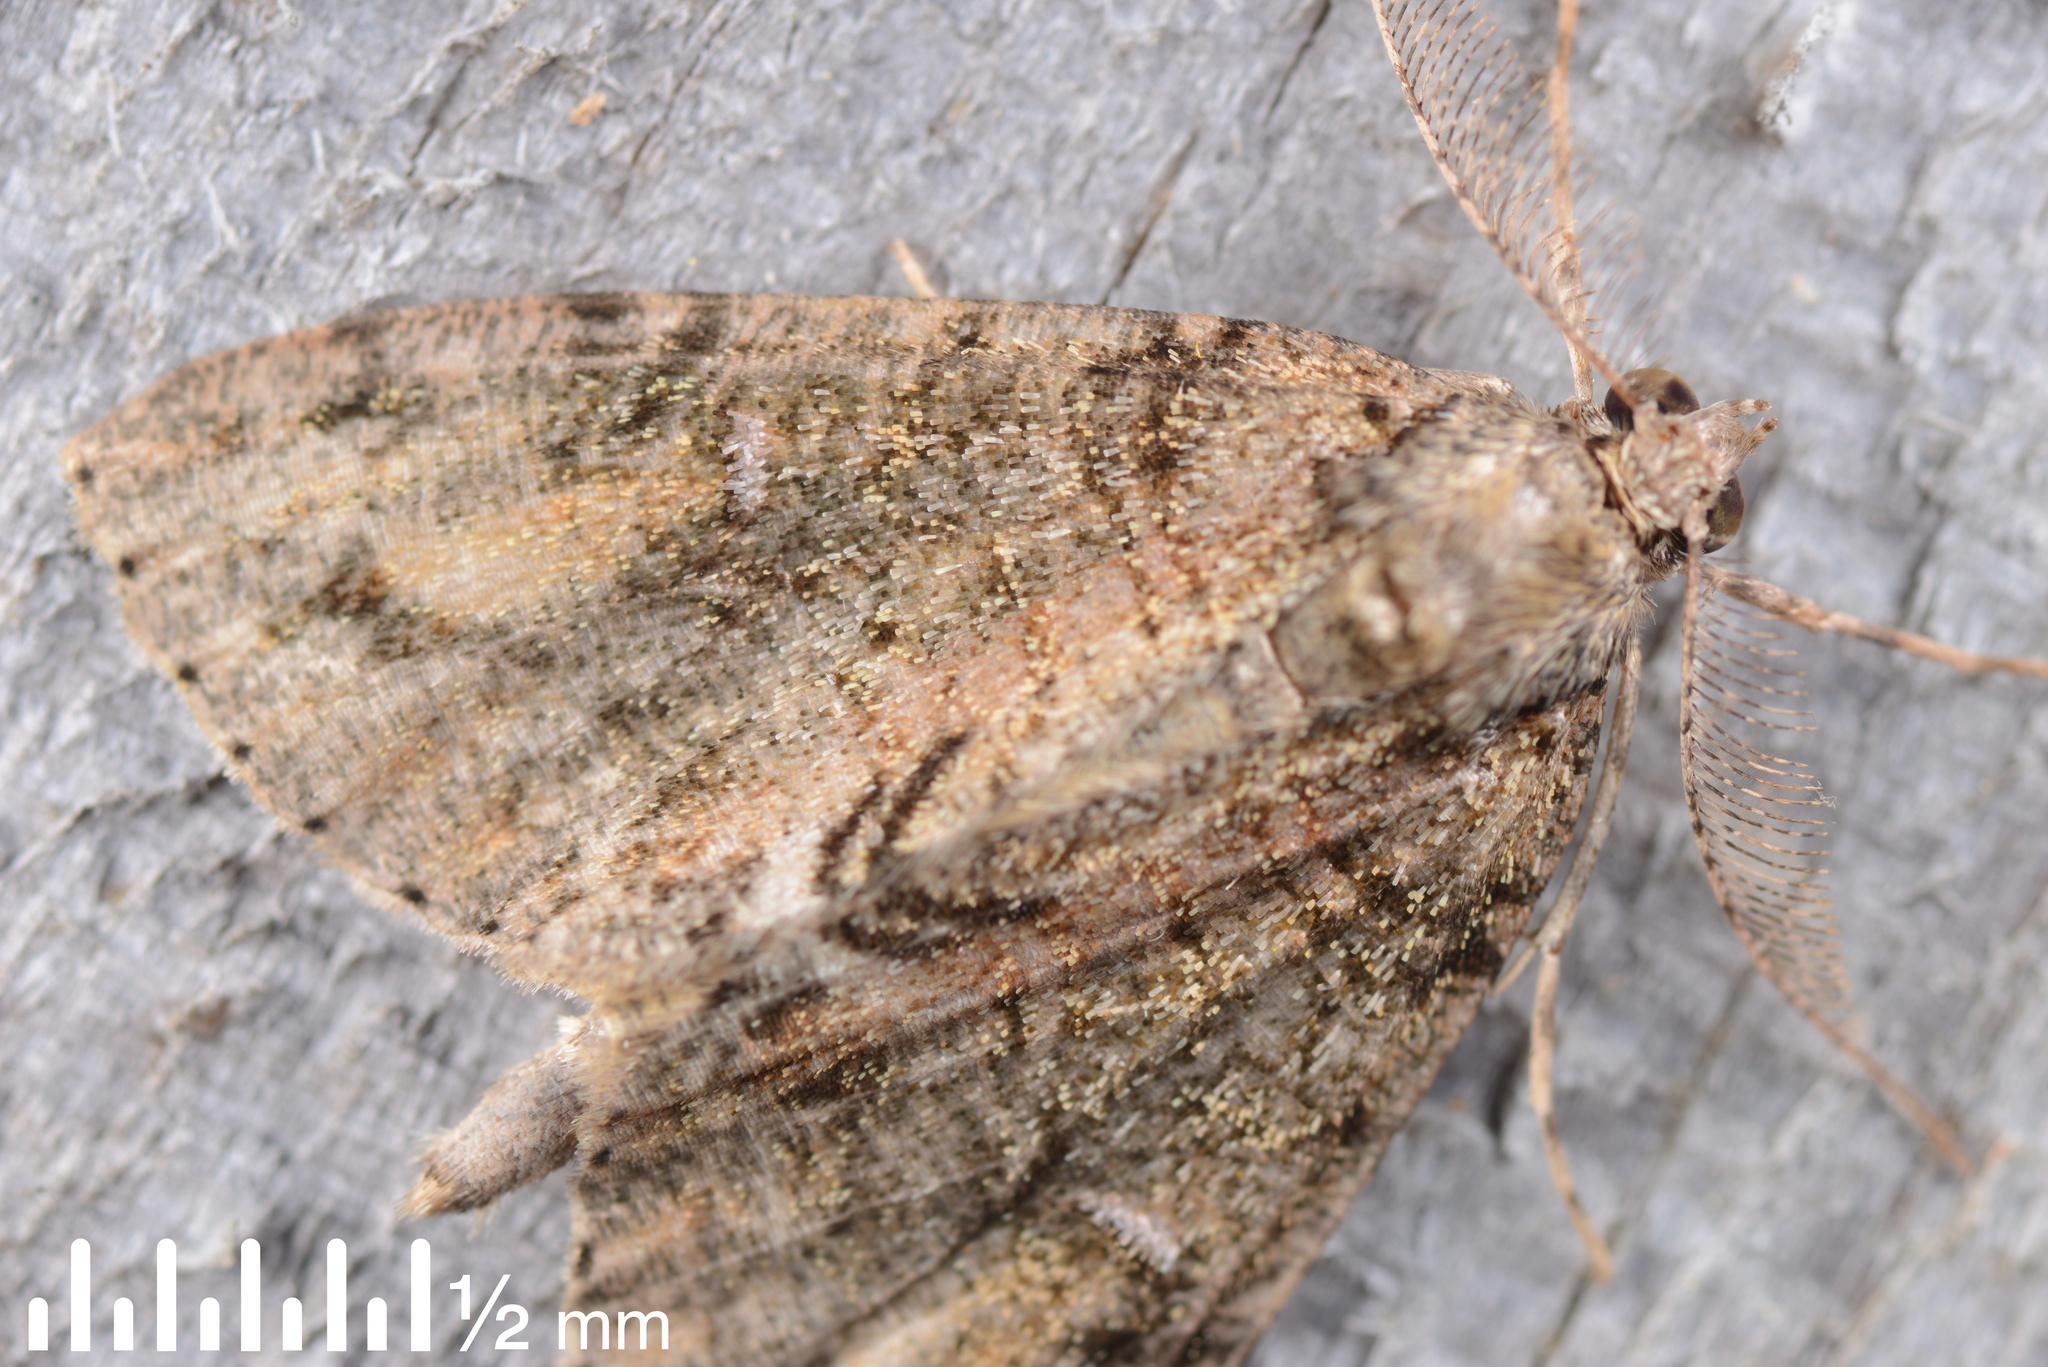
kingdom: Animalia
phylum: Arthropoda
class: Insecta
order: Lepidoptera
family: Geometridae
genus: Pseudocoremia
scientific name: Pseudocoremia suavis
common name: Common forest looper
